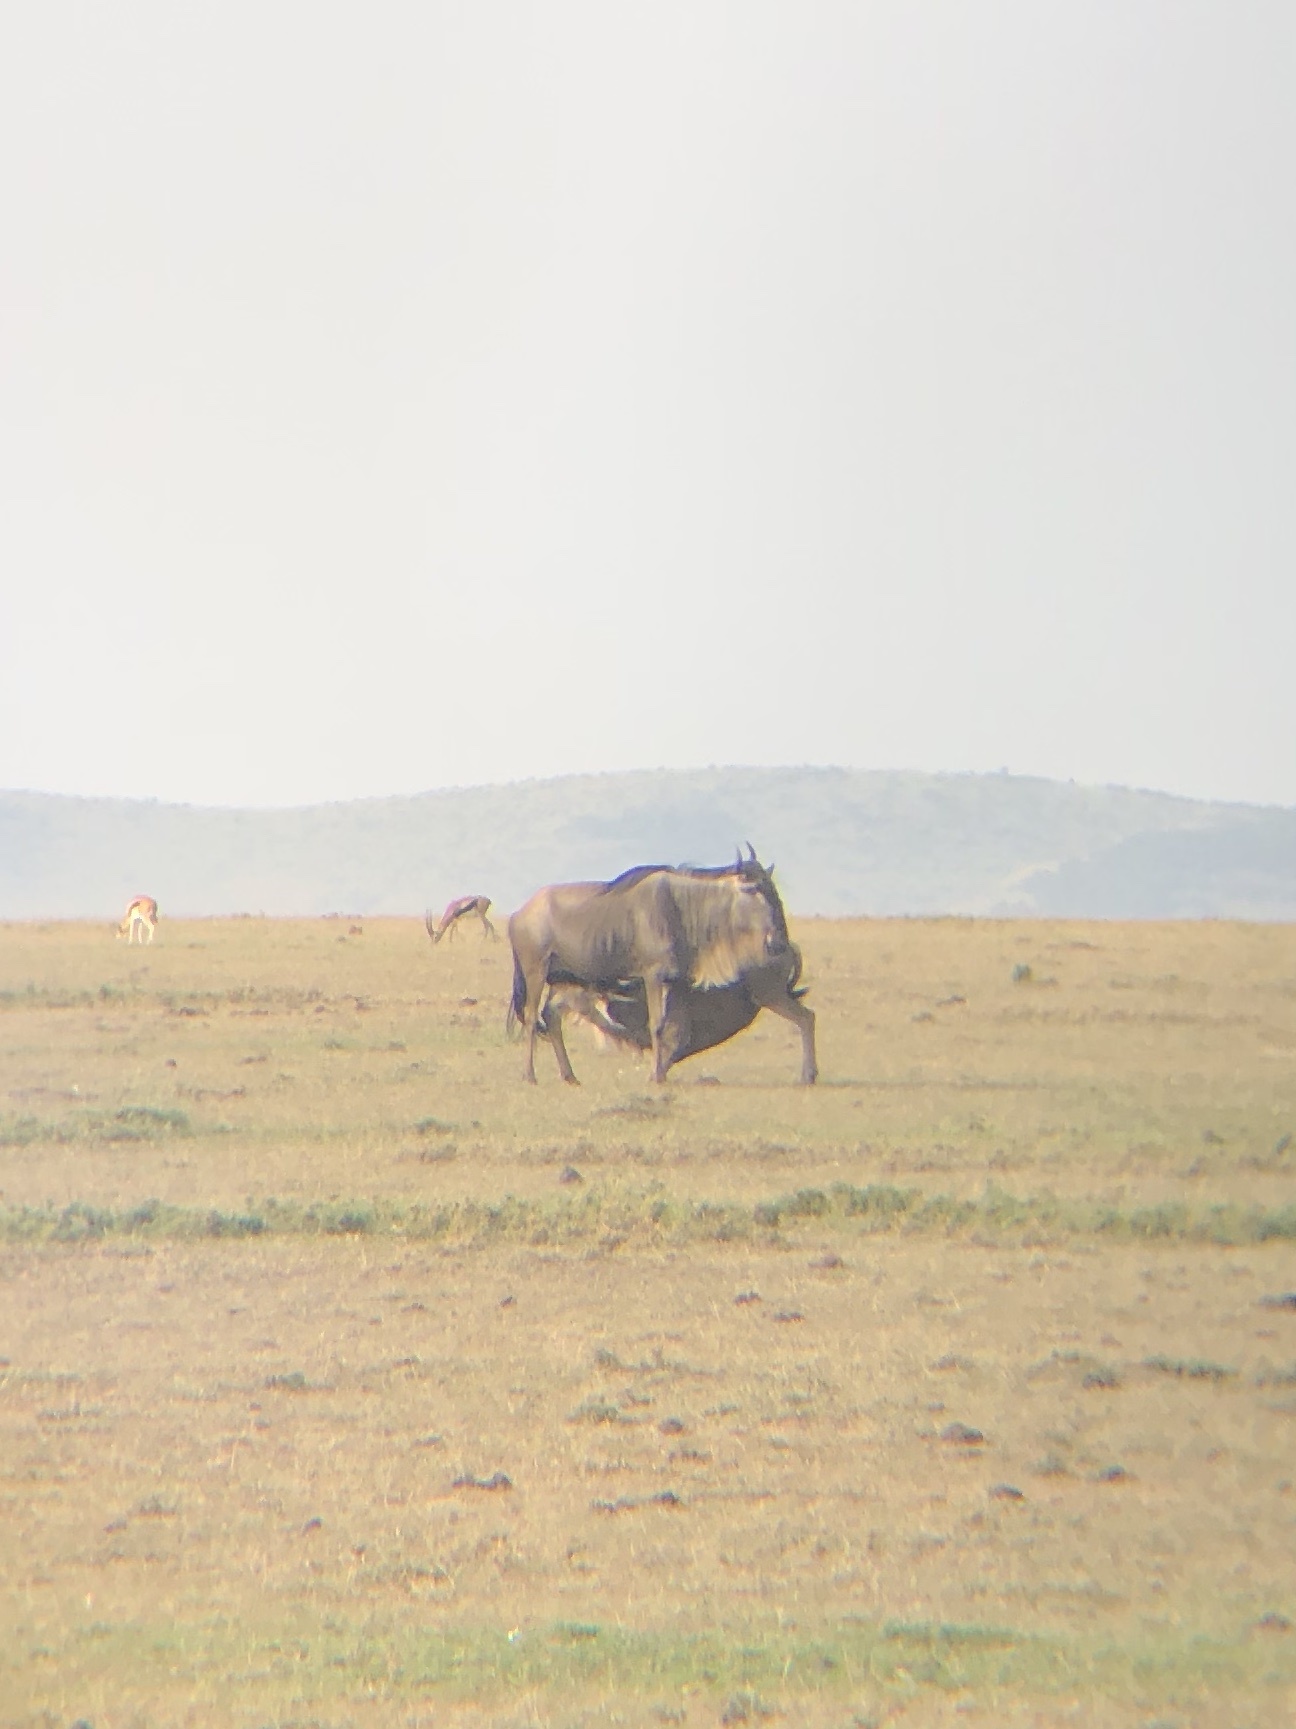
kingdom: Animalia
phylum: Chordata
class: Mammalia
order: Artiodactyla
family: Bovidae
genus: Connochaetes
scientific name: Connochaetes taurinus
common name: Blue wildebeest
